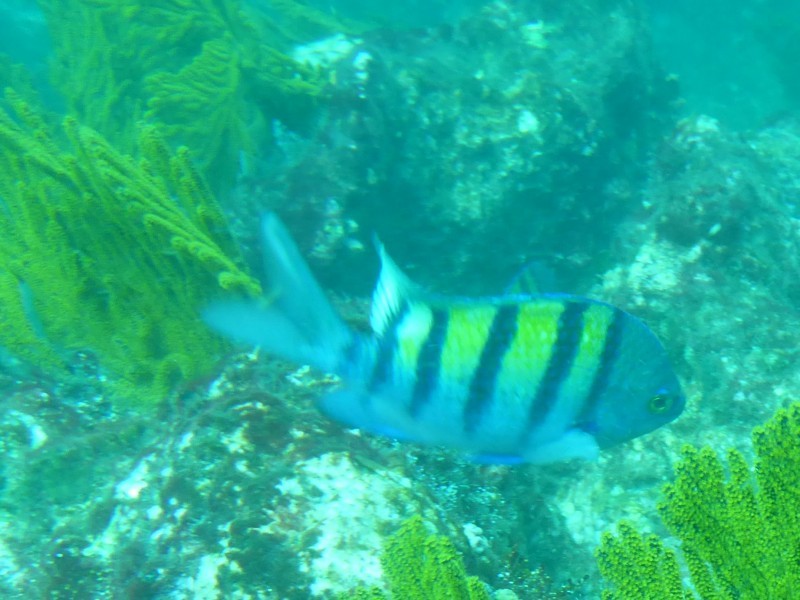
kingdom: Animalia
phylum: Chordata
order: Perciformes
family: Pomacentridae
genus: Abudefduf
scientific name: Abudefduf troschelii
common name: Panamic sergeant major
